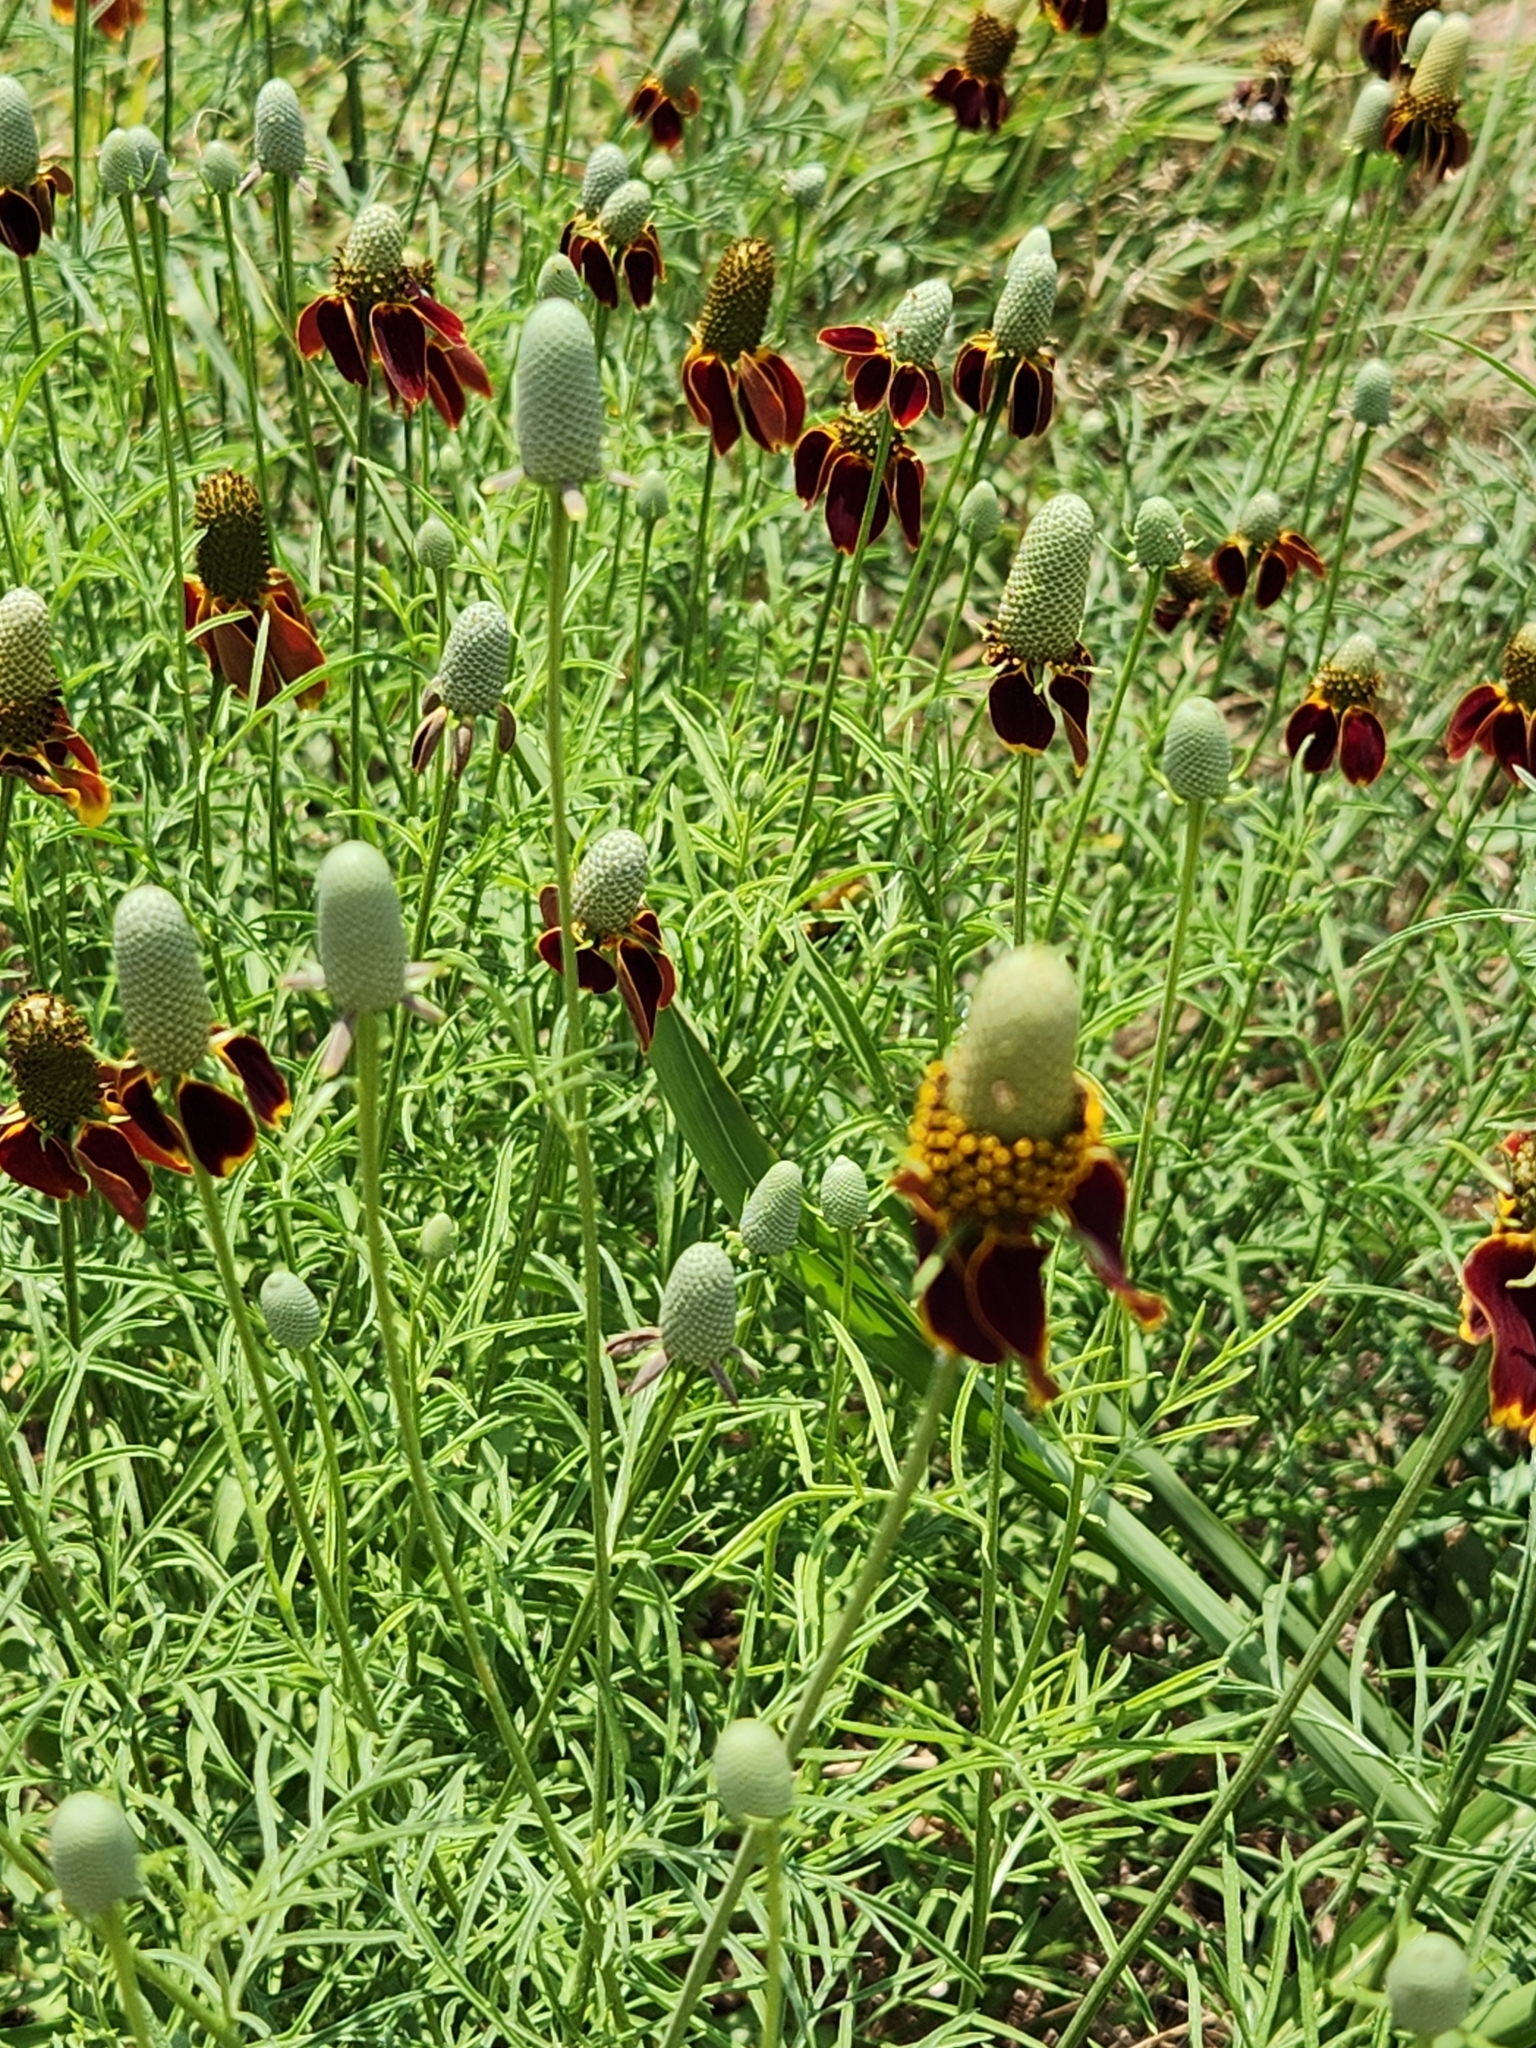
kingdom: Plantae
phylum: Tracheophyta
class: Magnoliopsida
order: Asterales
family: Asteraceae
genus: Ratibida
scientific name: Ratibida columnifera
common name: Prairie coneflower
